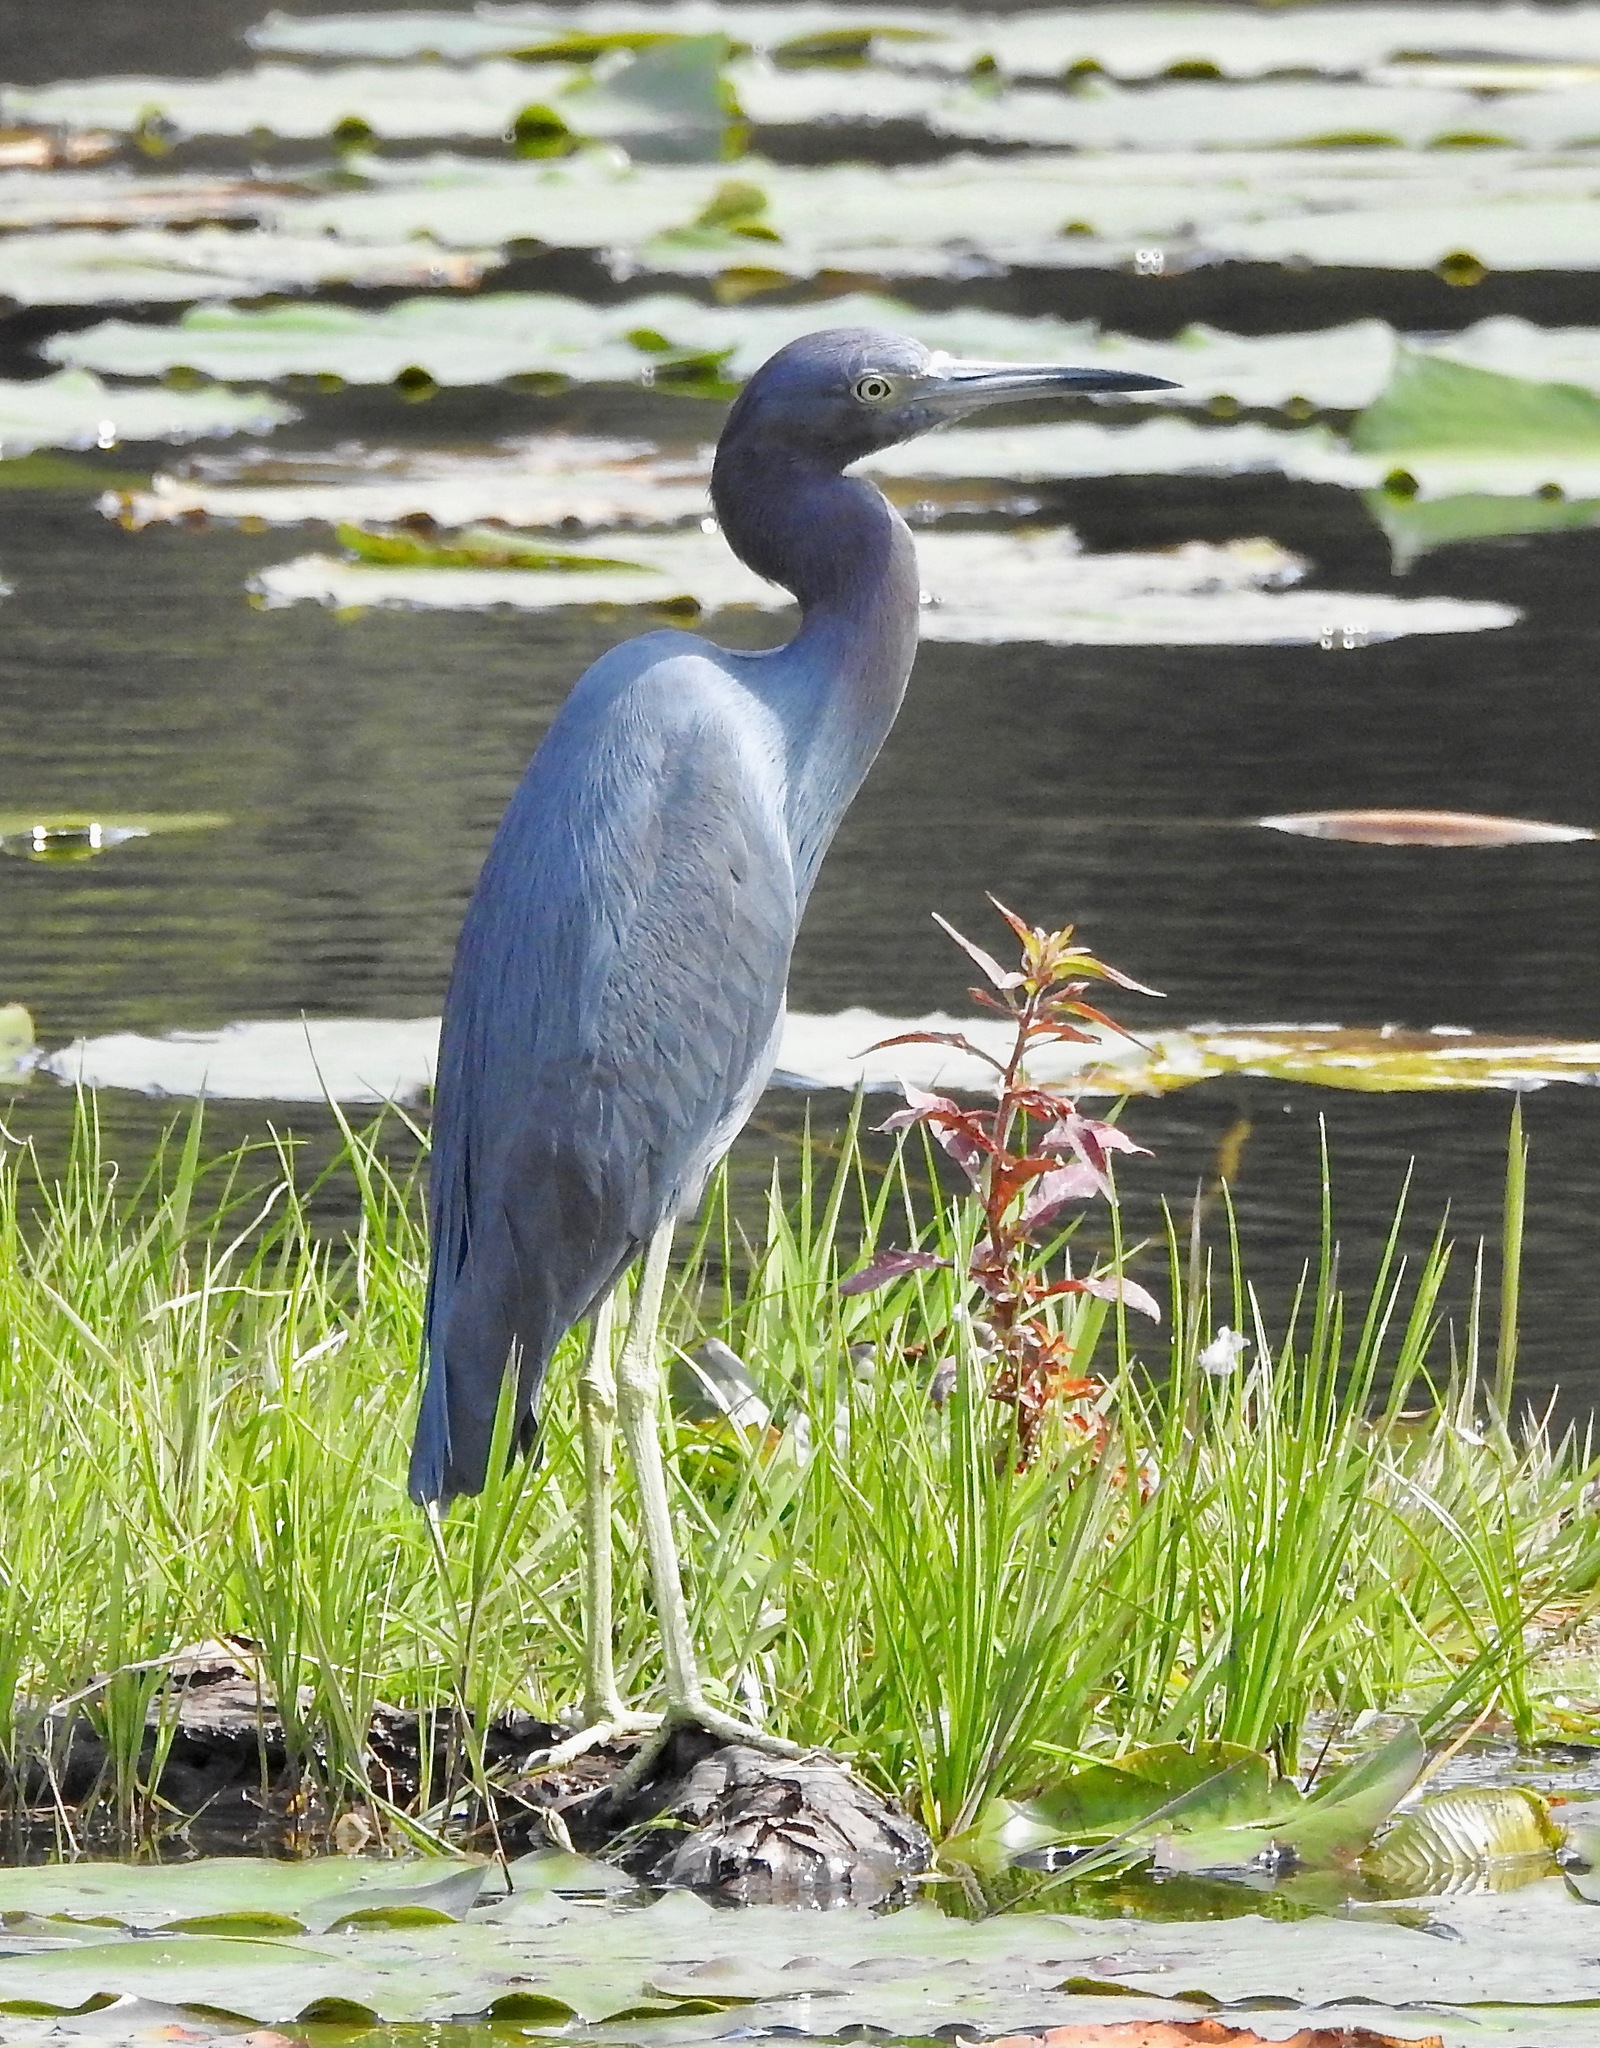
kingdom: Animalia
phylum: Chordata
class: Aves
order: Pelecaniformes
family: Ardeidae
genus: Egretta
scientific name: Egretta caerulea
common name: Little blue heron
